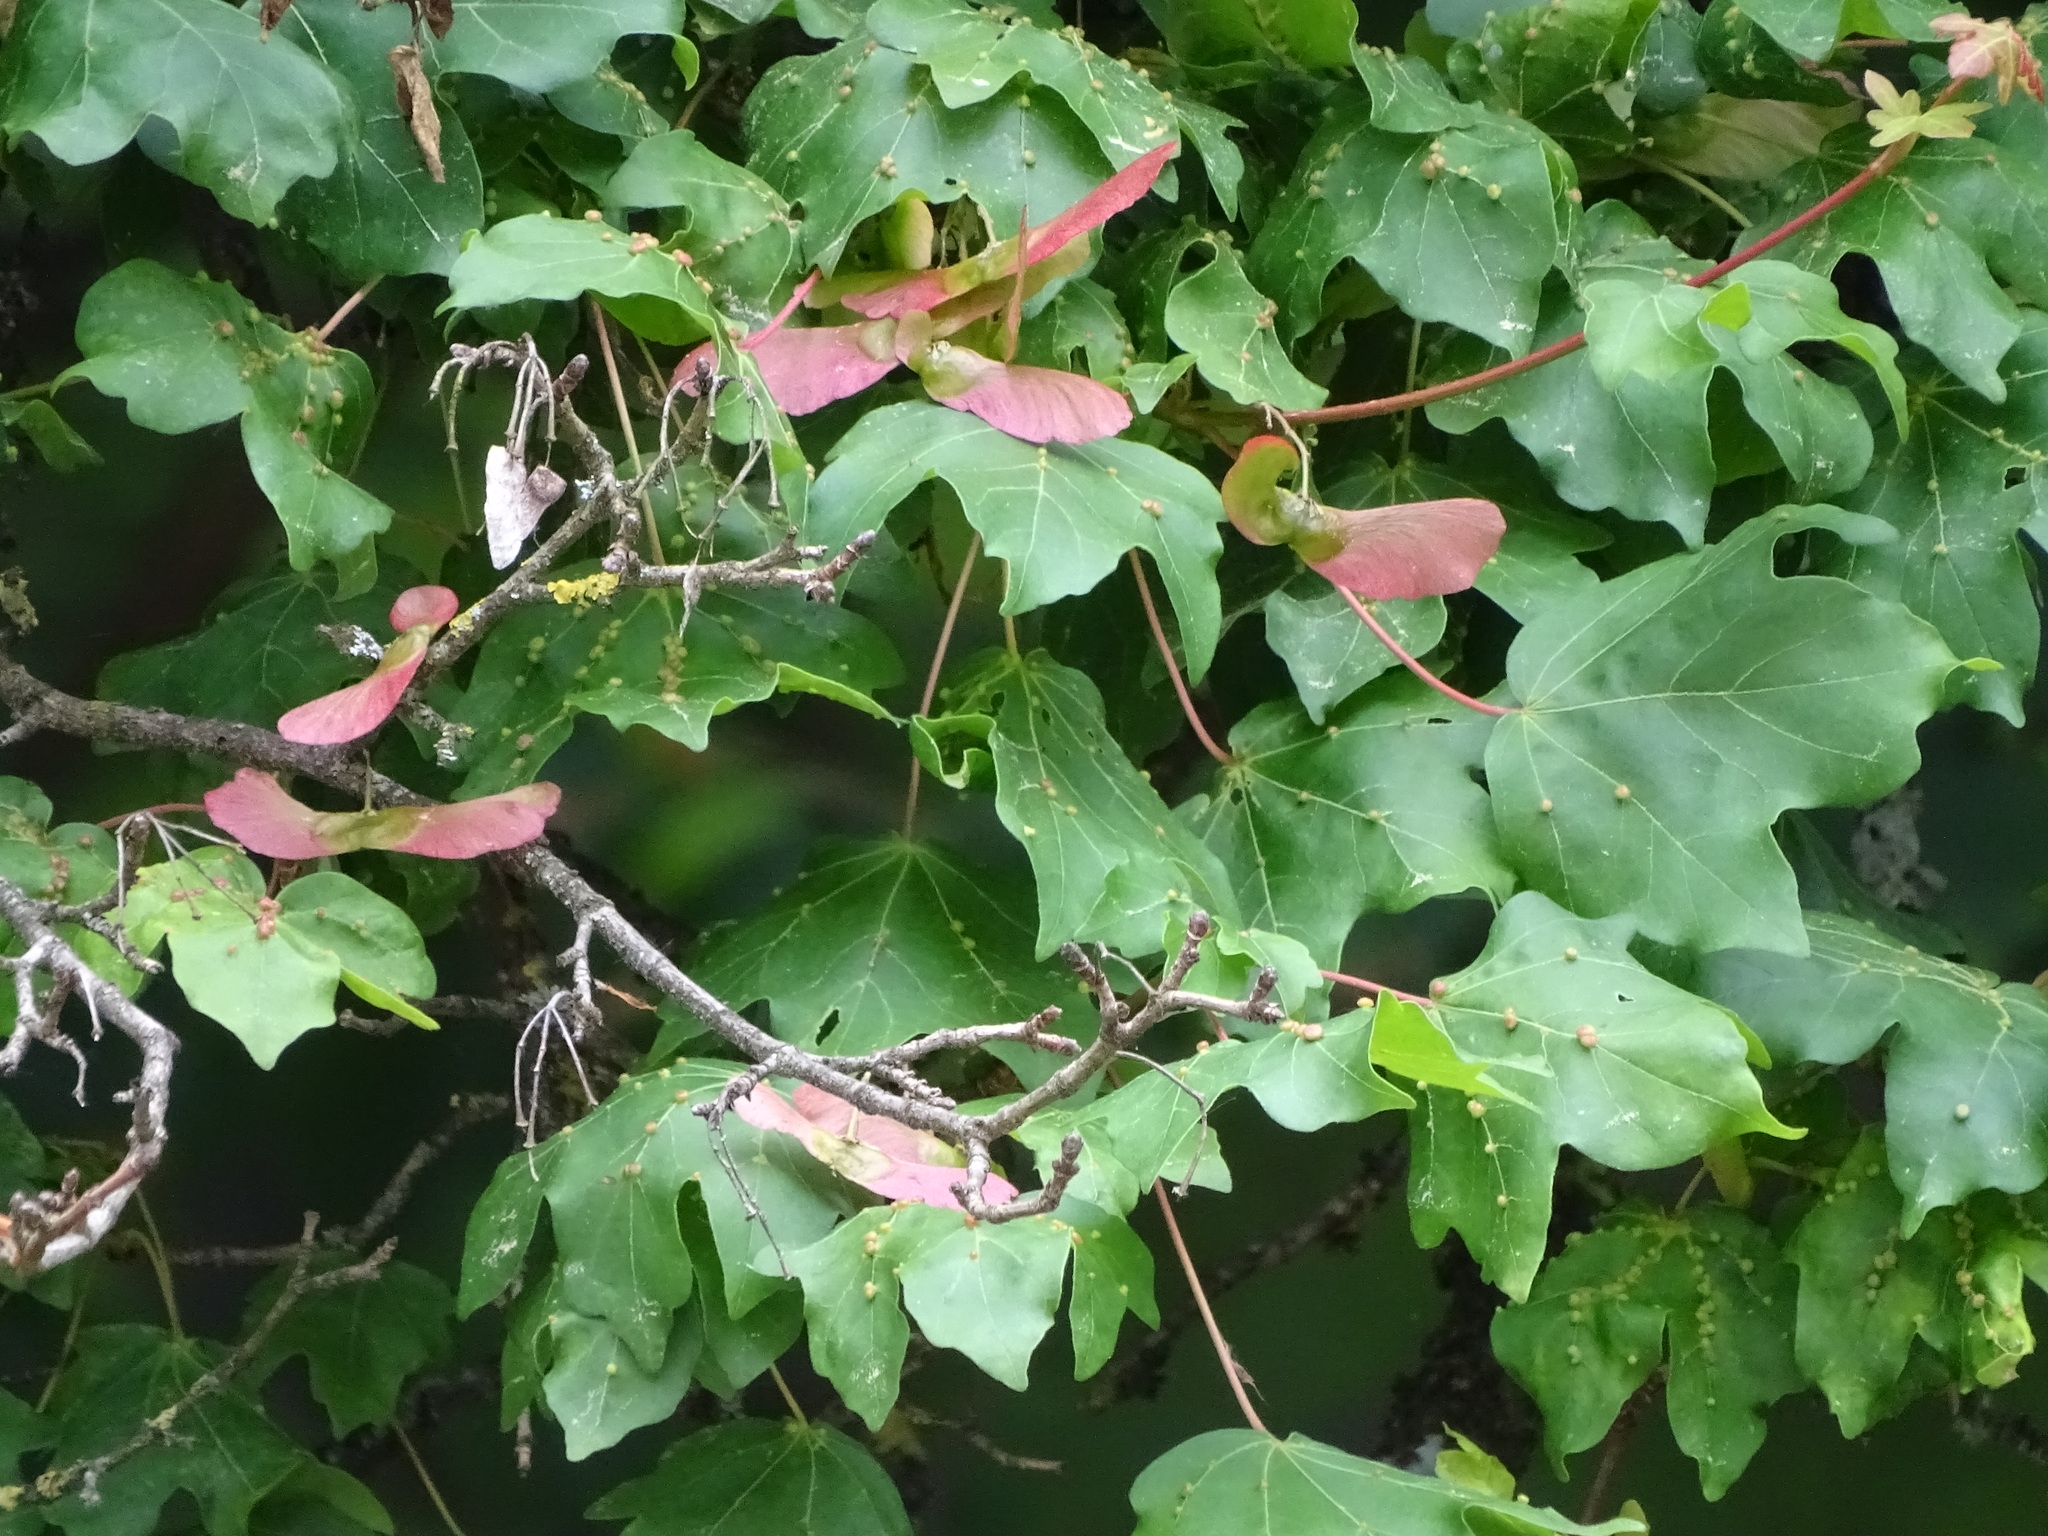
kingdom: Plantae
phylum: Tracheophyta
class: Magnoliopsida
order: Sapindales
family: Sapindaceae
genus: Acer
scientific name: Acer campestre
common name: Field maple
